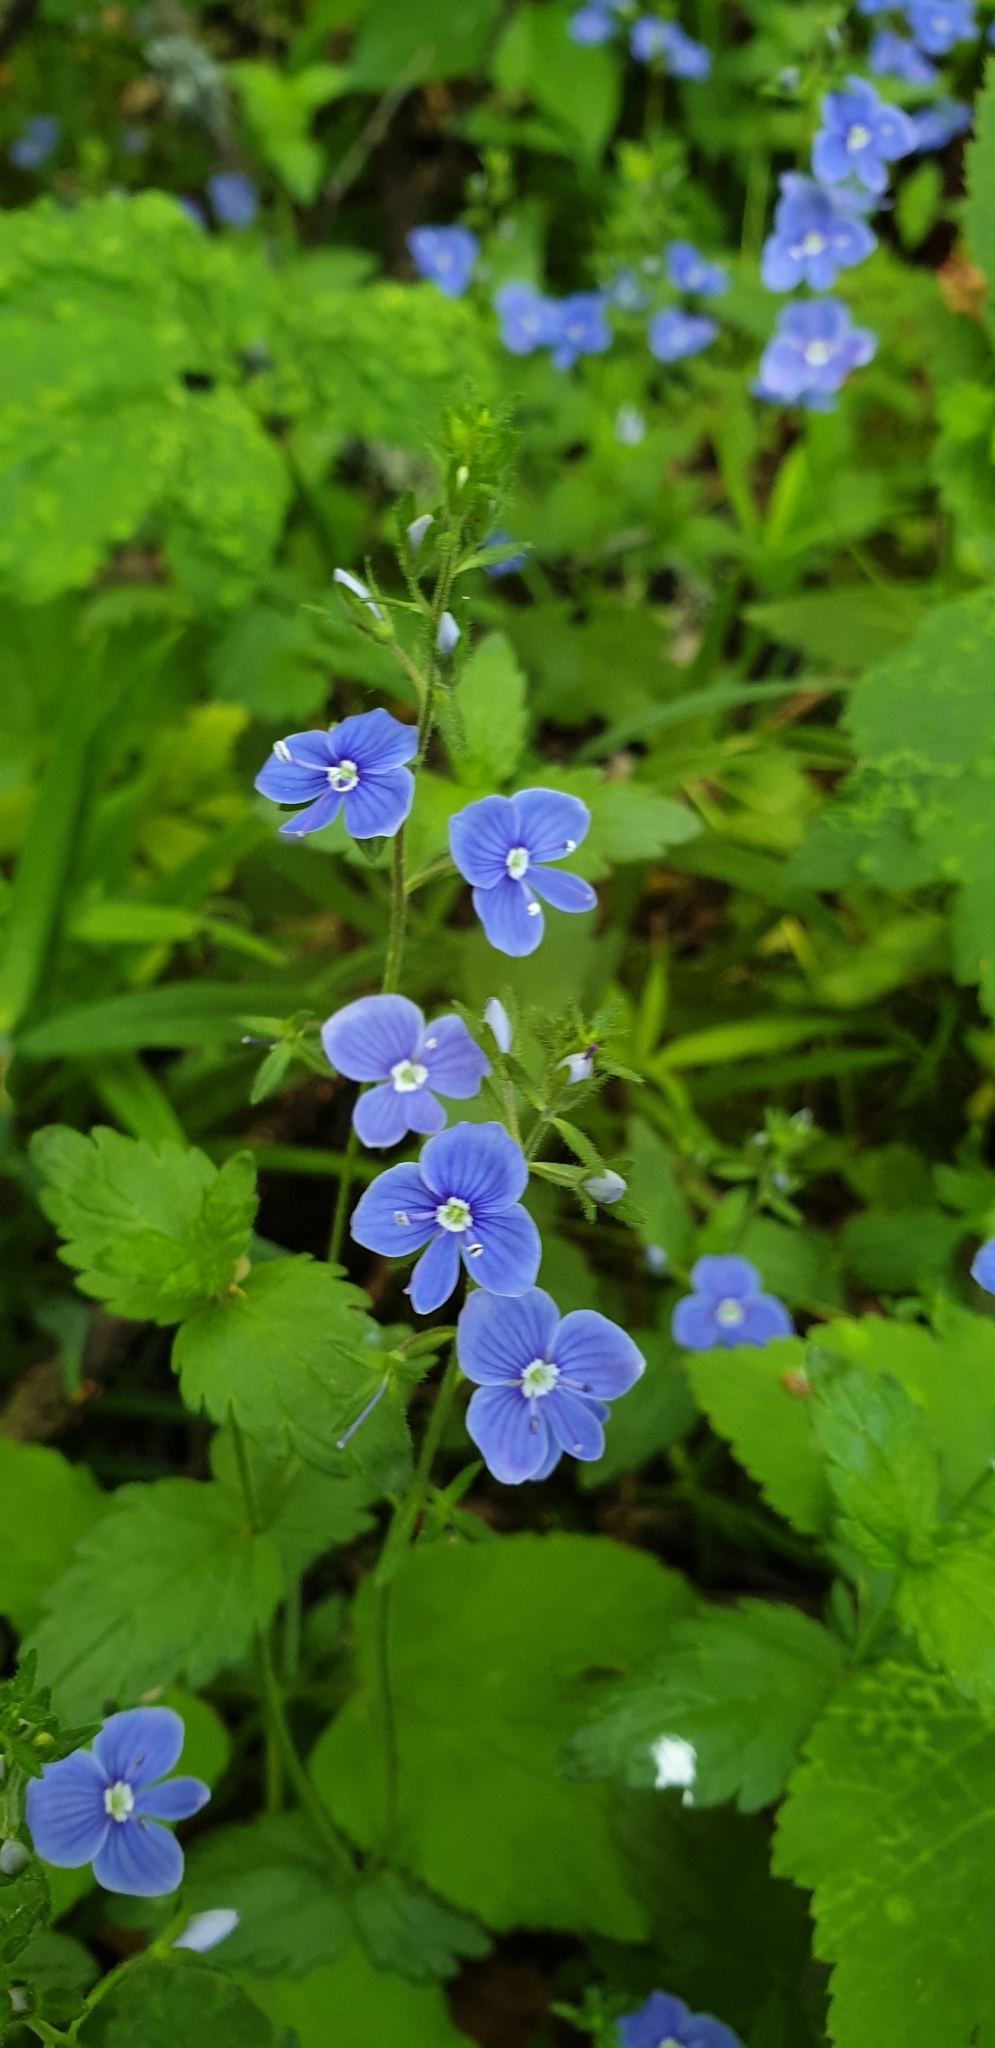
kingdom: Plantae
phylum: Tracheophyta
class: Magnoliopsida
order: Lamiales
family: Plantaginaceae
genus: Veronica
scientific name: Veronica chamaedrys
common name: Germander speedwell
